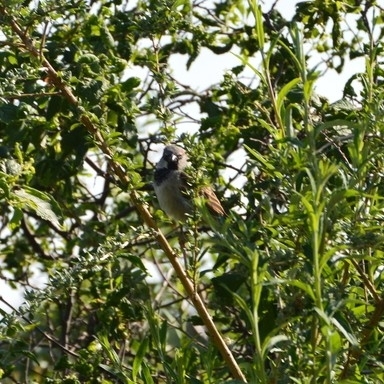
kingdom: Animalia
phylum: Chordata
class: Aves
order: Passeriformes
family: Passeridae
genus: Passer
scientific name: Passer domesticus
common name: House sparrow
